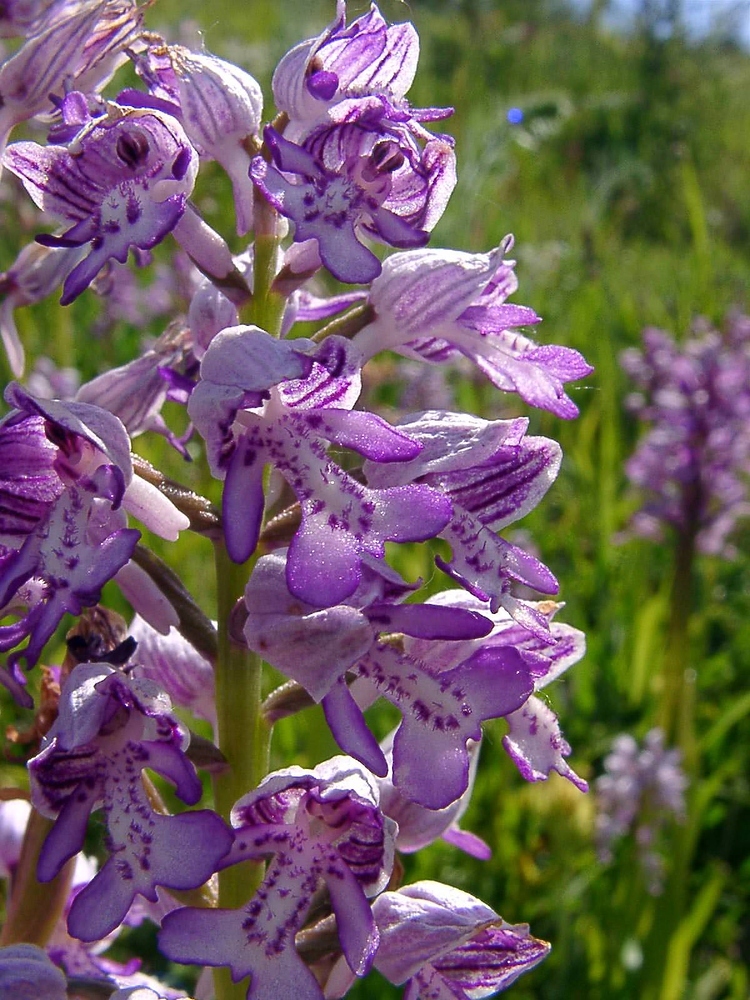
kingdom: Plantae
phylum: Tracheophyta
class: Liliopsida
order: Asparagales
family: Orchidaceae
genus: Orchis
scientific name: Orchis militaris
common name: Military orchid
